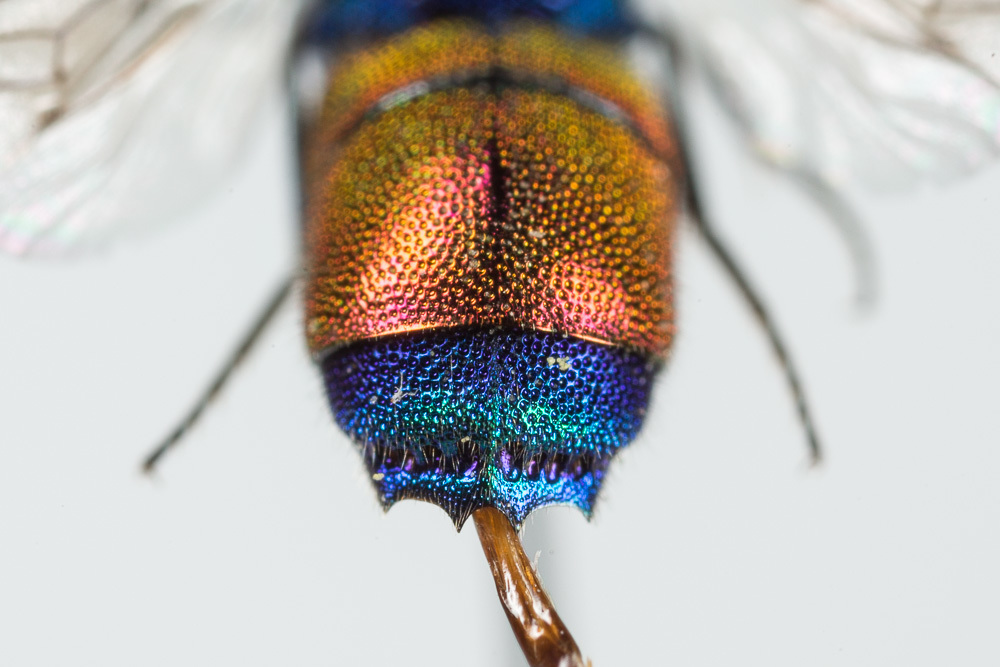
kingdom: Animalia
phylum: Arthropoda
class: Insecta
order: Hymenoptera
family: Chrysididae
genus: Chrysis
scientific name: Chrysis splendidula
